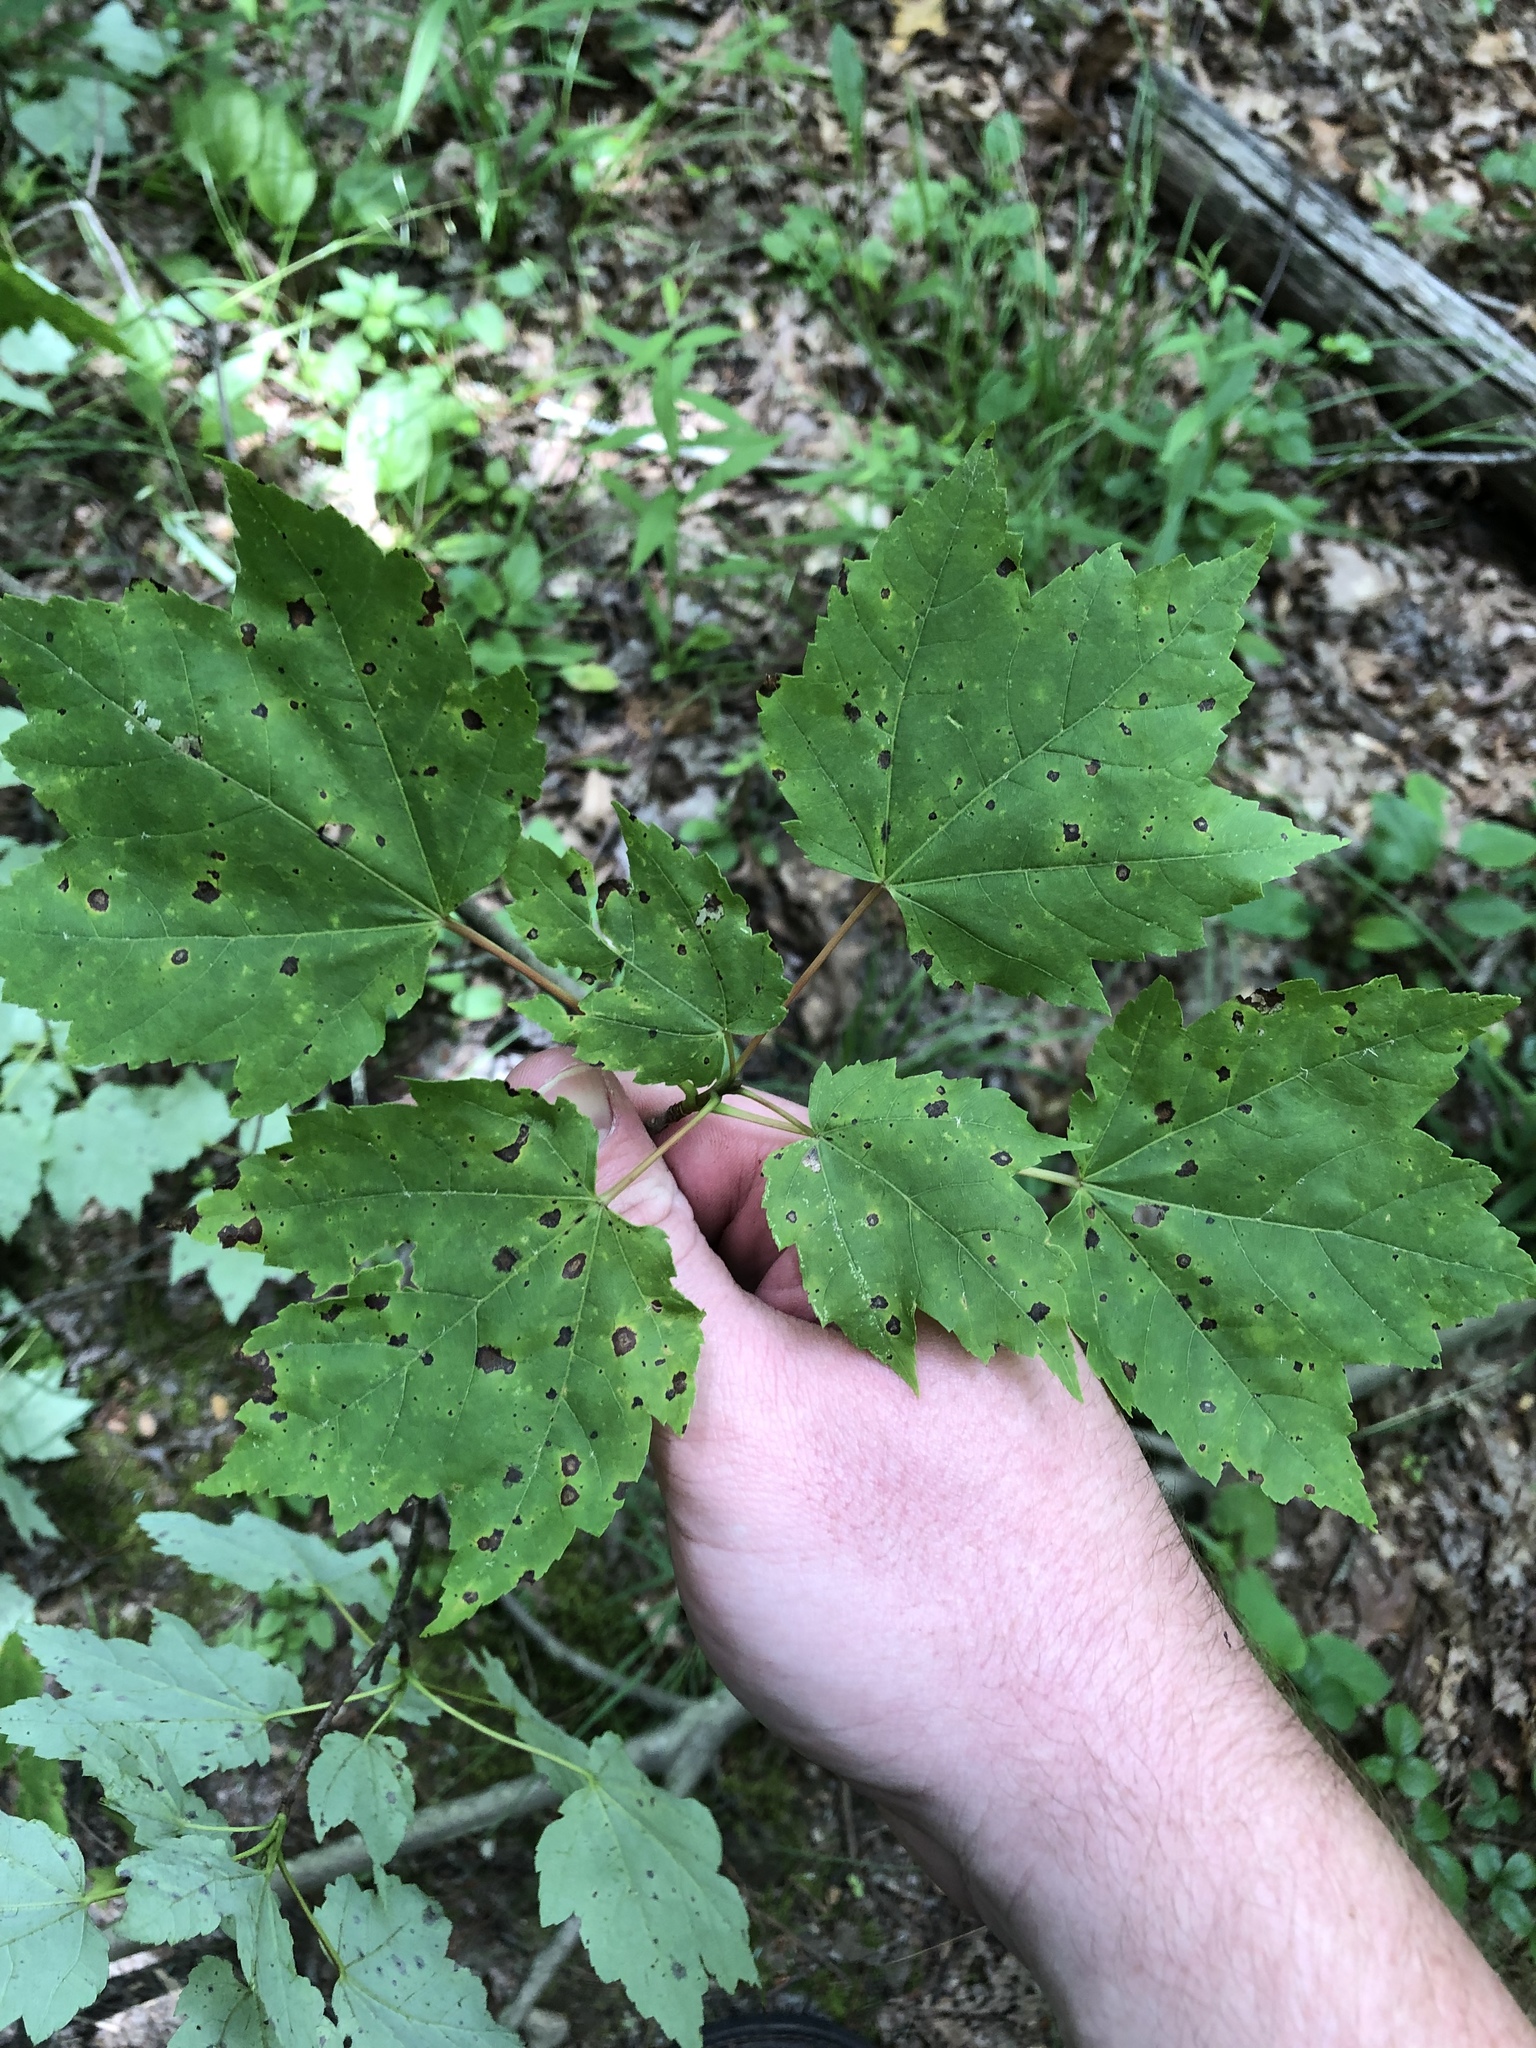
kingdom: Plantae
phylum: Tracheophyta
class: Magnoliopsida
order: Sapindales
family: Sapindaceae
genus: Acer
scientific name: Acer rubrum
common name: Red maple
